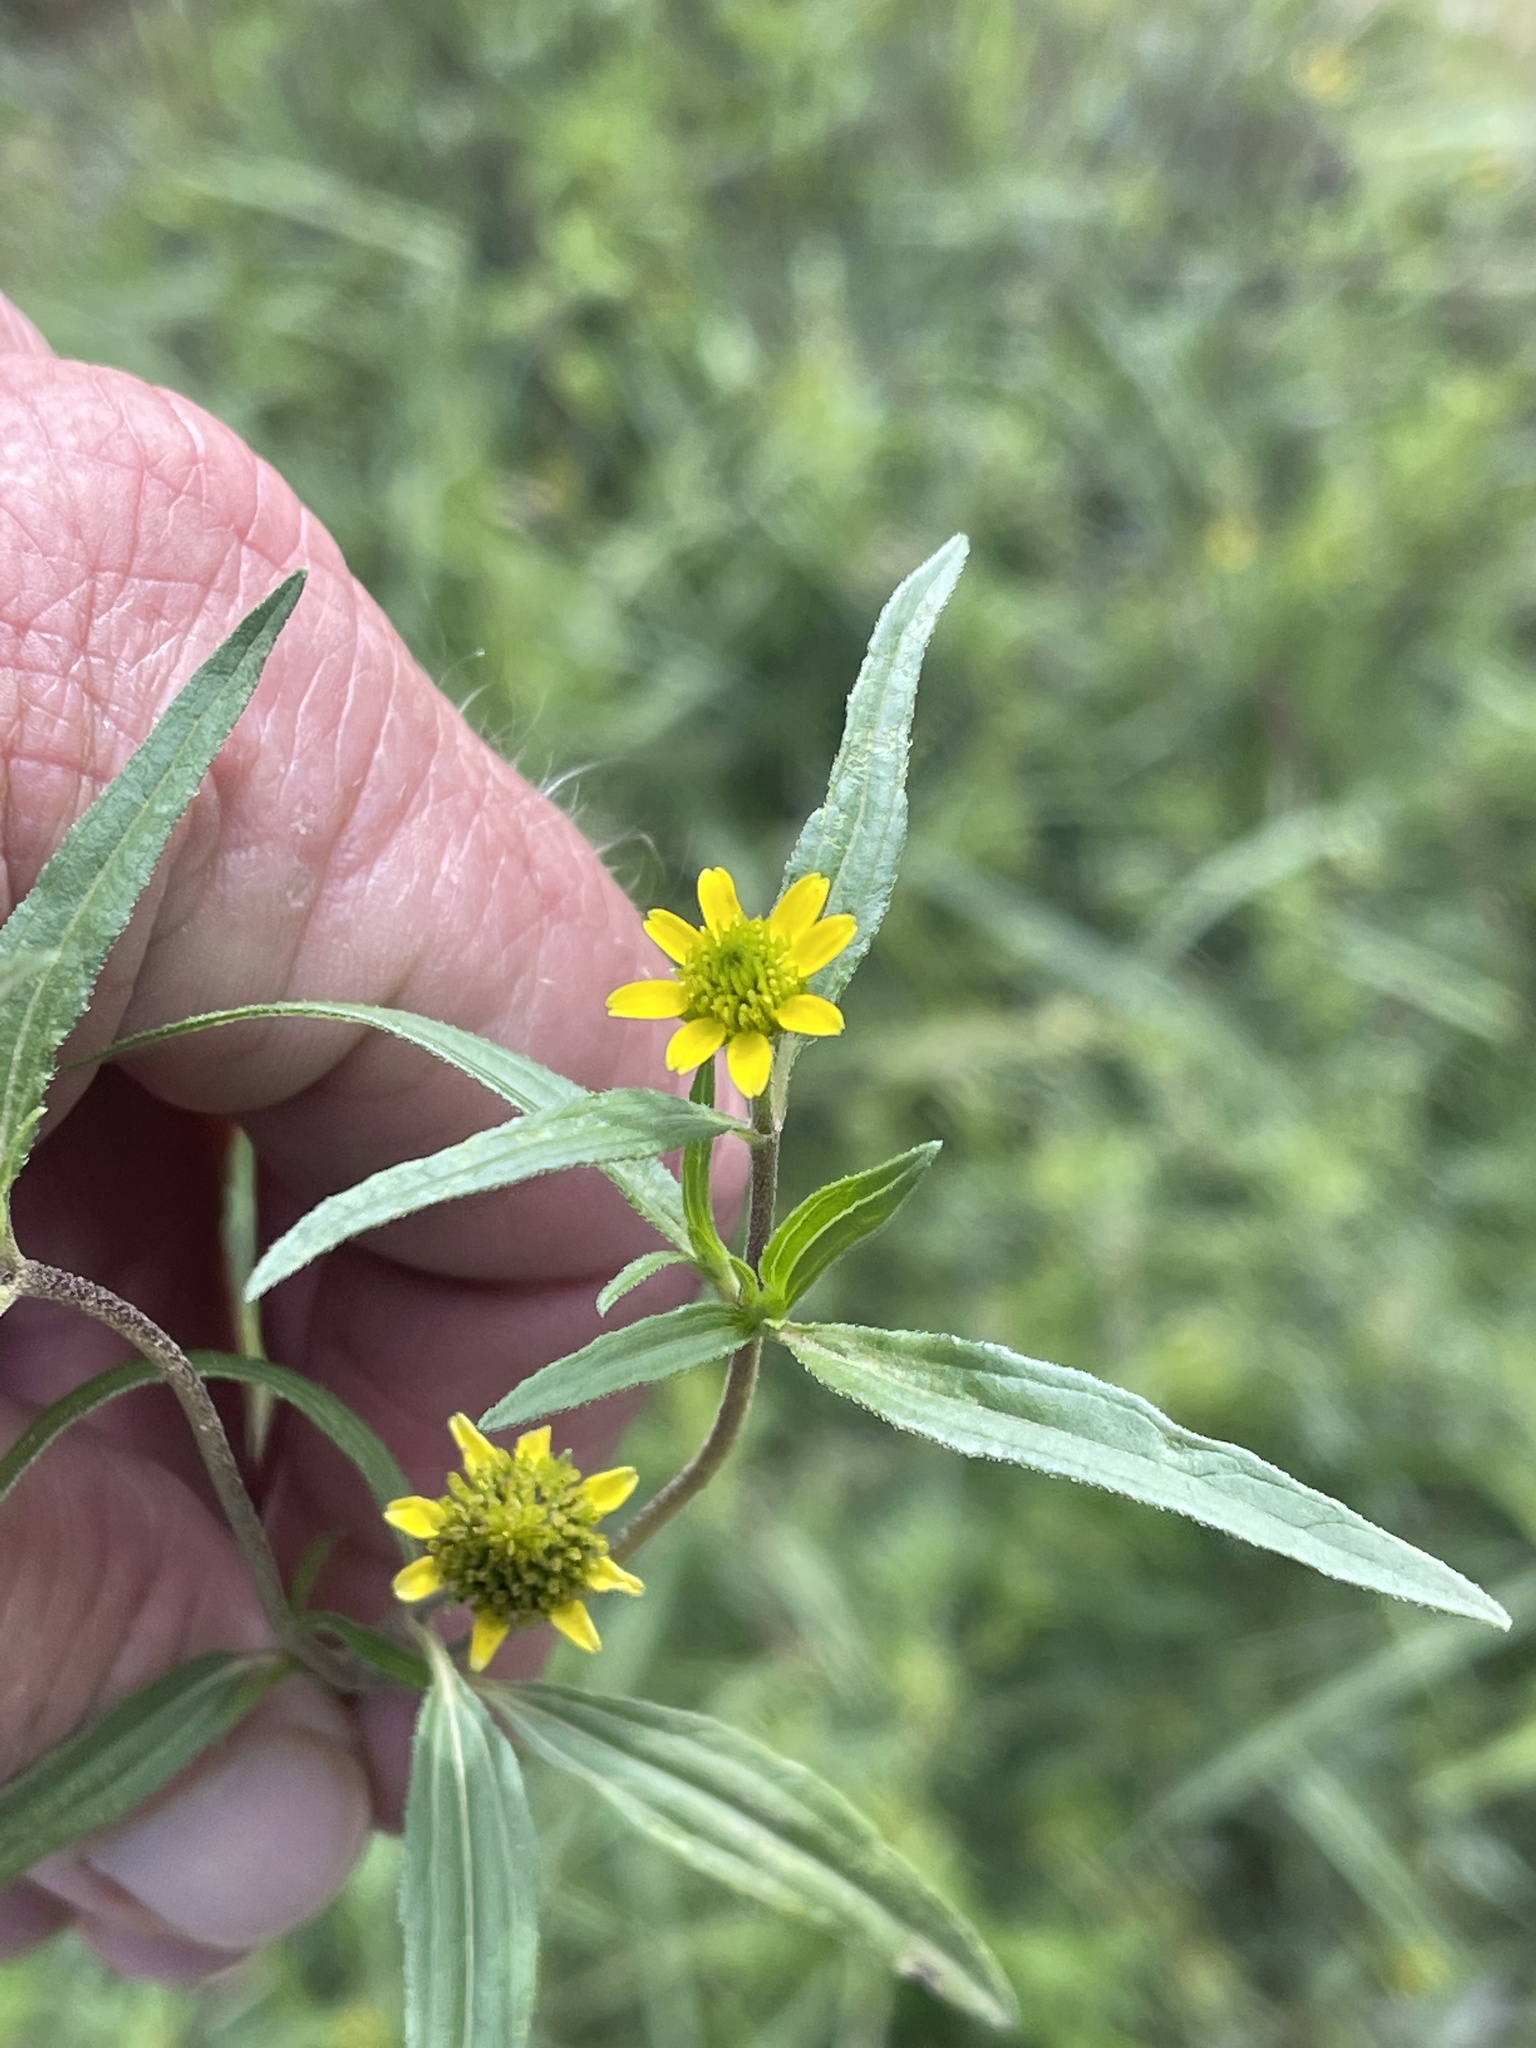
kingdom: Plantae
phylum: Tracheophyta
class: Magnoliopsida
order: Asterales
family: Asteraceae
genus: Sanvitalia
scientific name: Sanvitalia abertii
